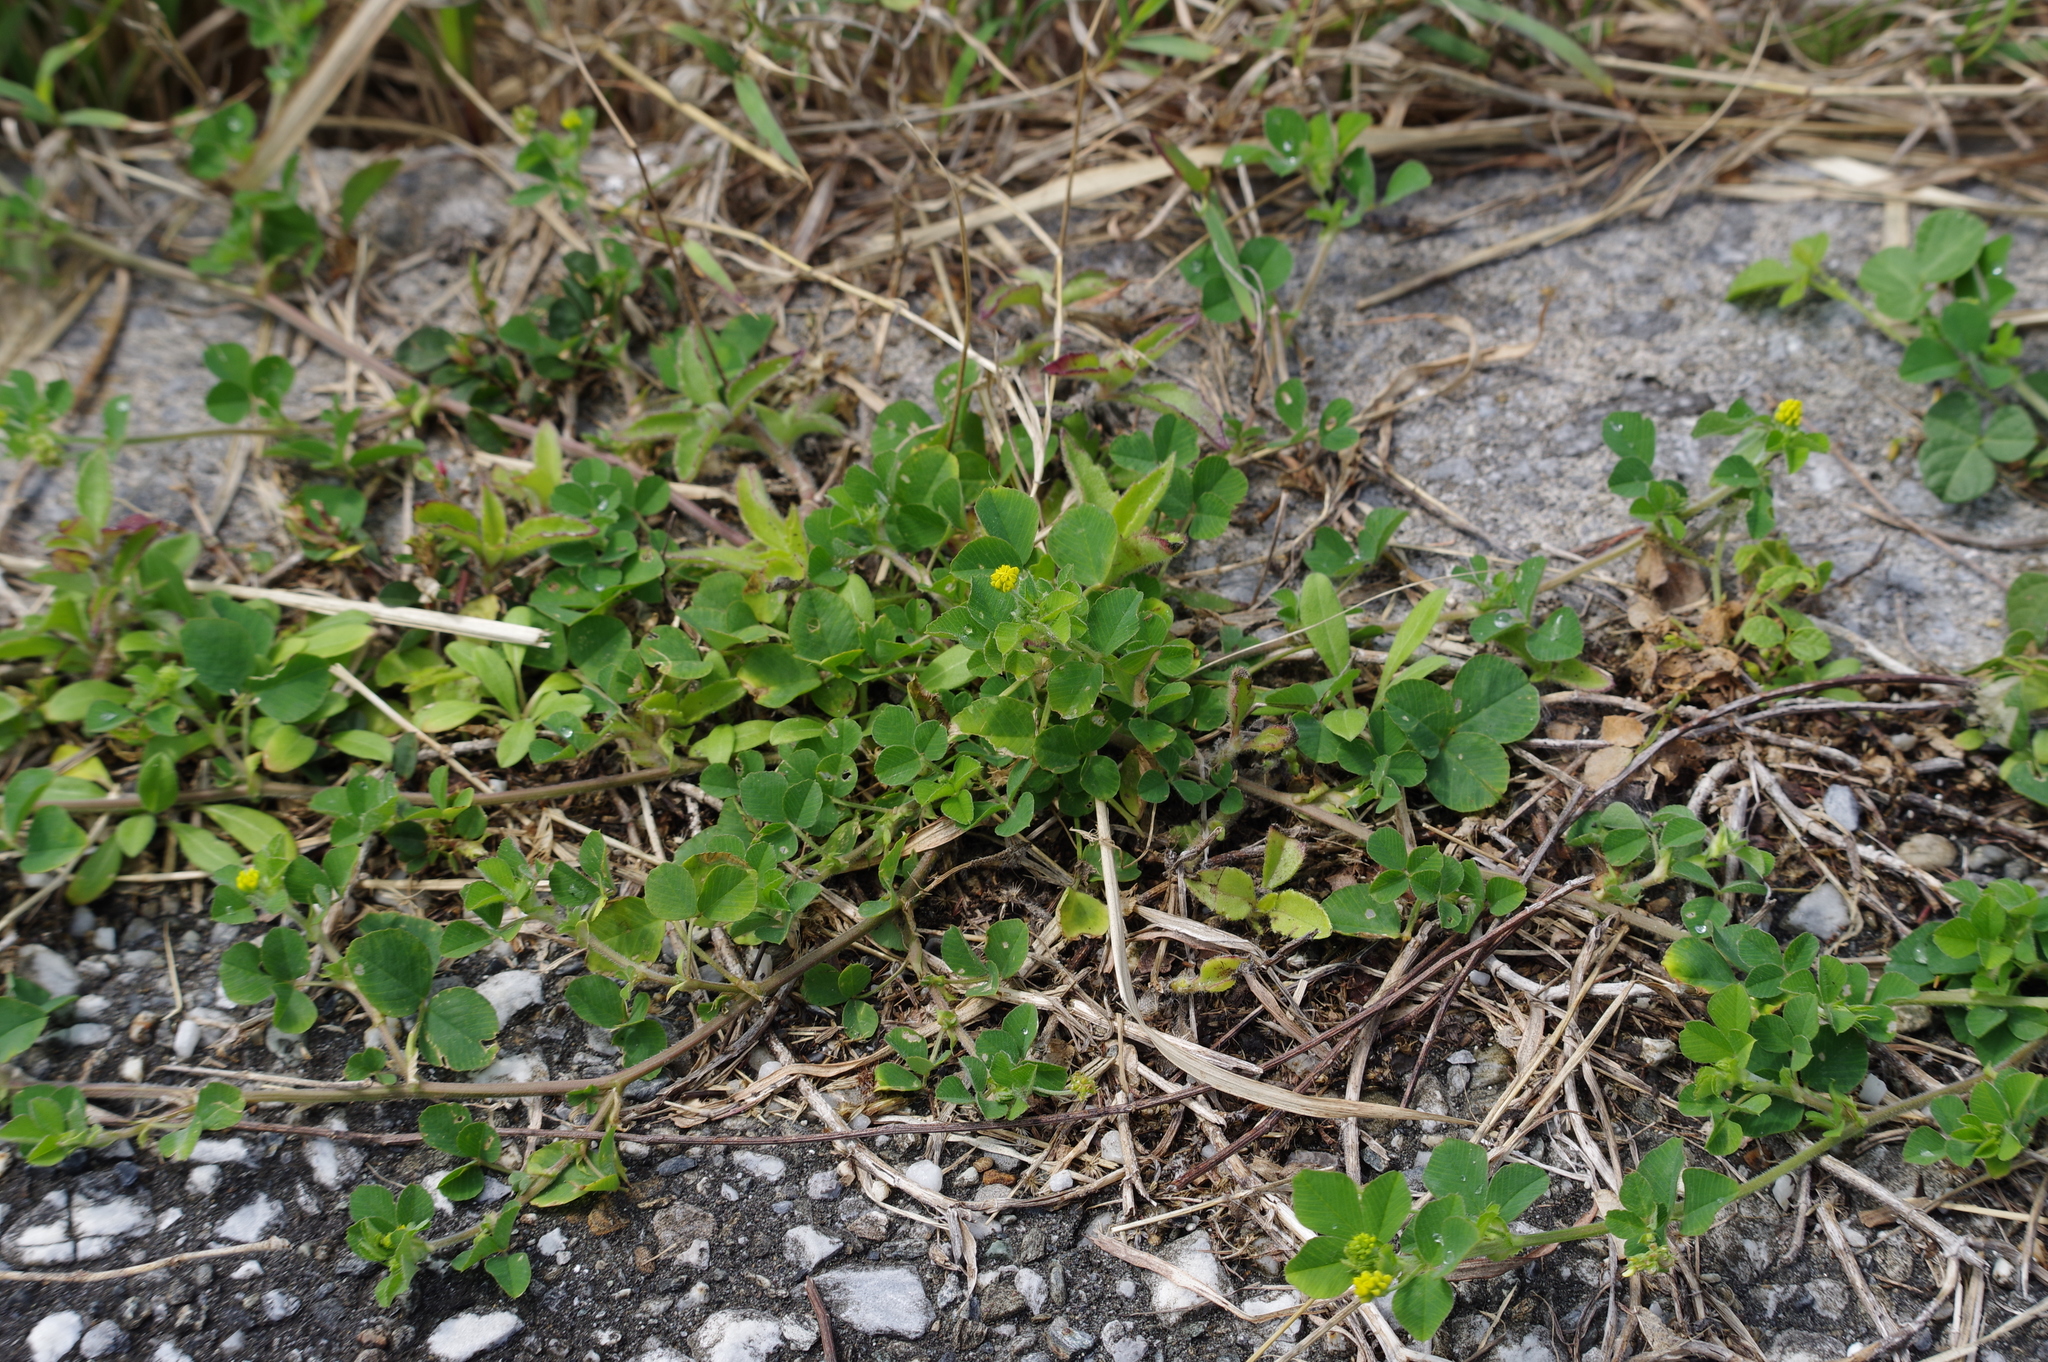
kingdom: Plantae
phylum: Tracheophyta
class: Magnoliopsida
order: Fabales
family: Fabaceae
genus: Medicago
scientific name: Medicago lupulina
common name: Black medick
